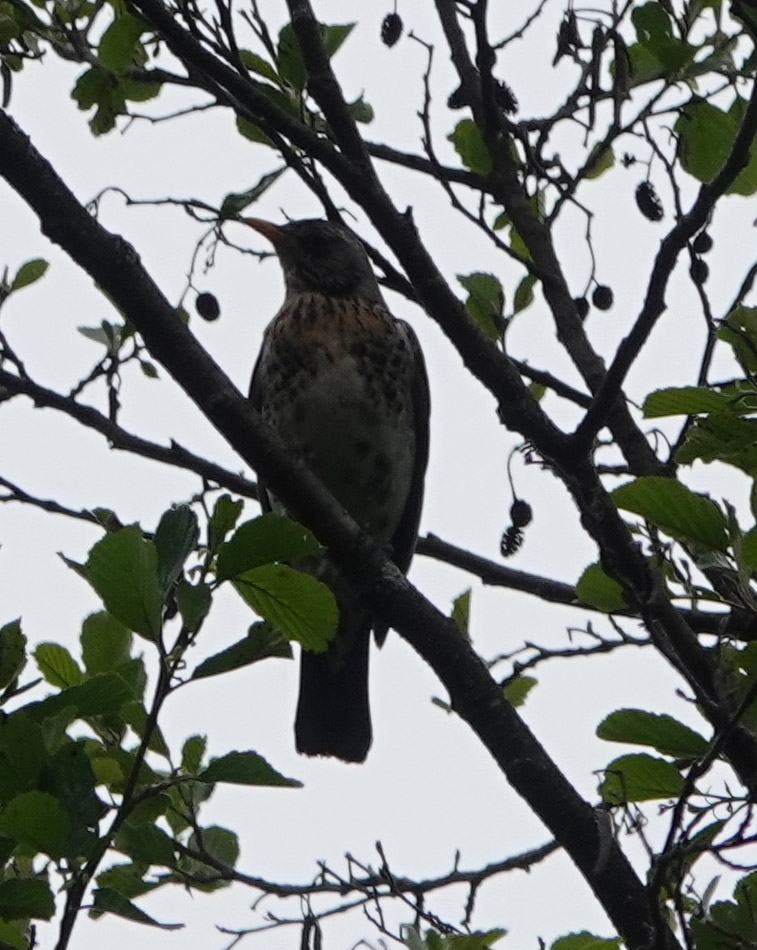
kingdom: Animalia
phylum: Chordata
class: Aves
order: Passeriformes
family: Turdidae
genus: Turdus
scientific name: Turdus pilaris
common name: Fieldfare
